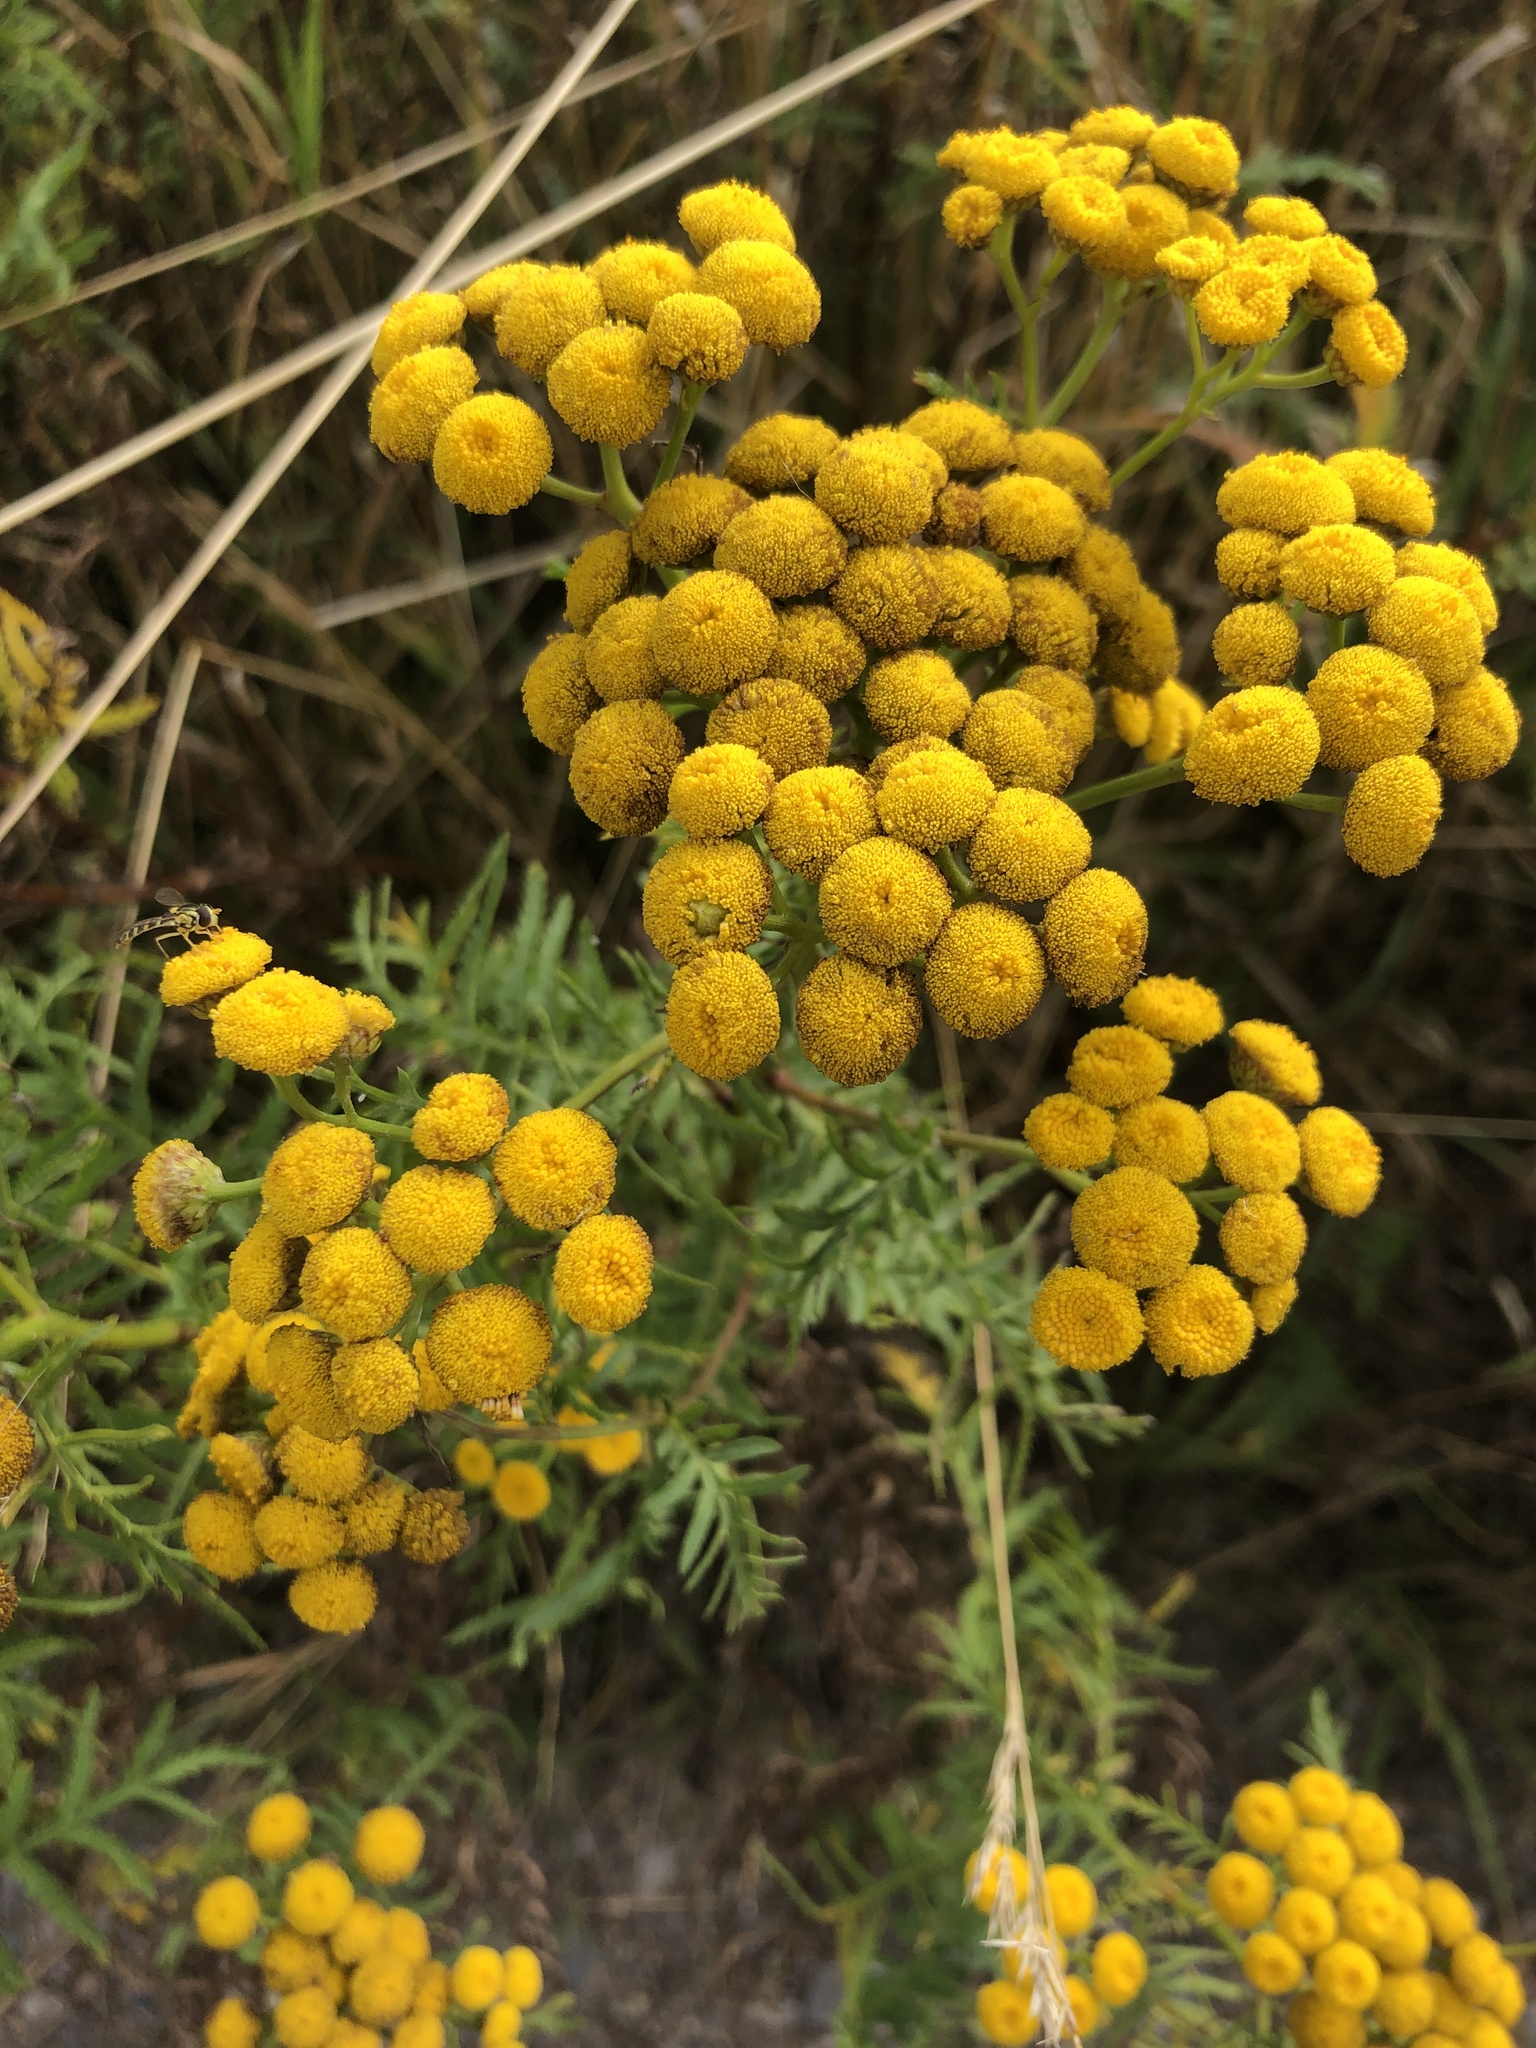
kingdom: Plantae
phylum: Tracheophyta
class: Magnoliopsida
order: Asterales
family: Asteraceae
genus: Tanacetum
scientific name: Tanacetum vulgare
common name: Common tansy
